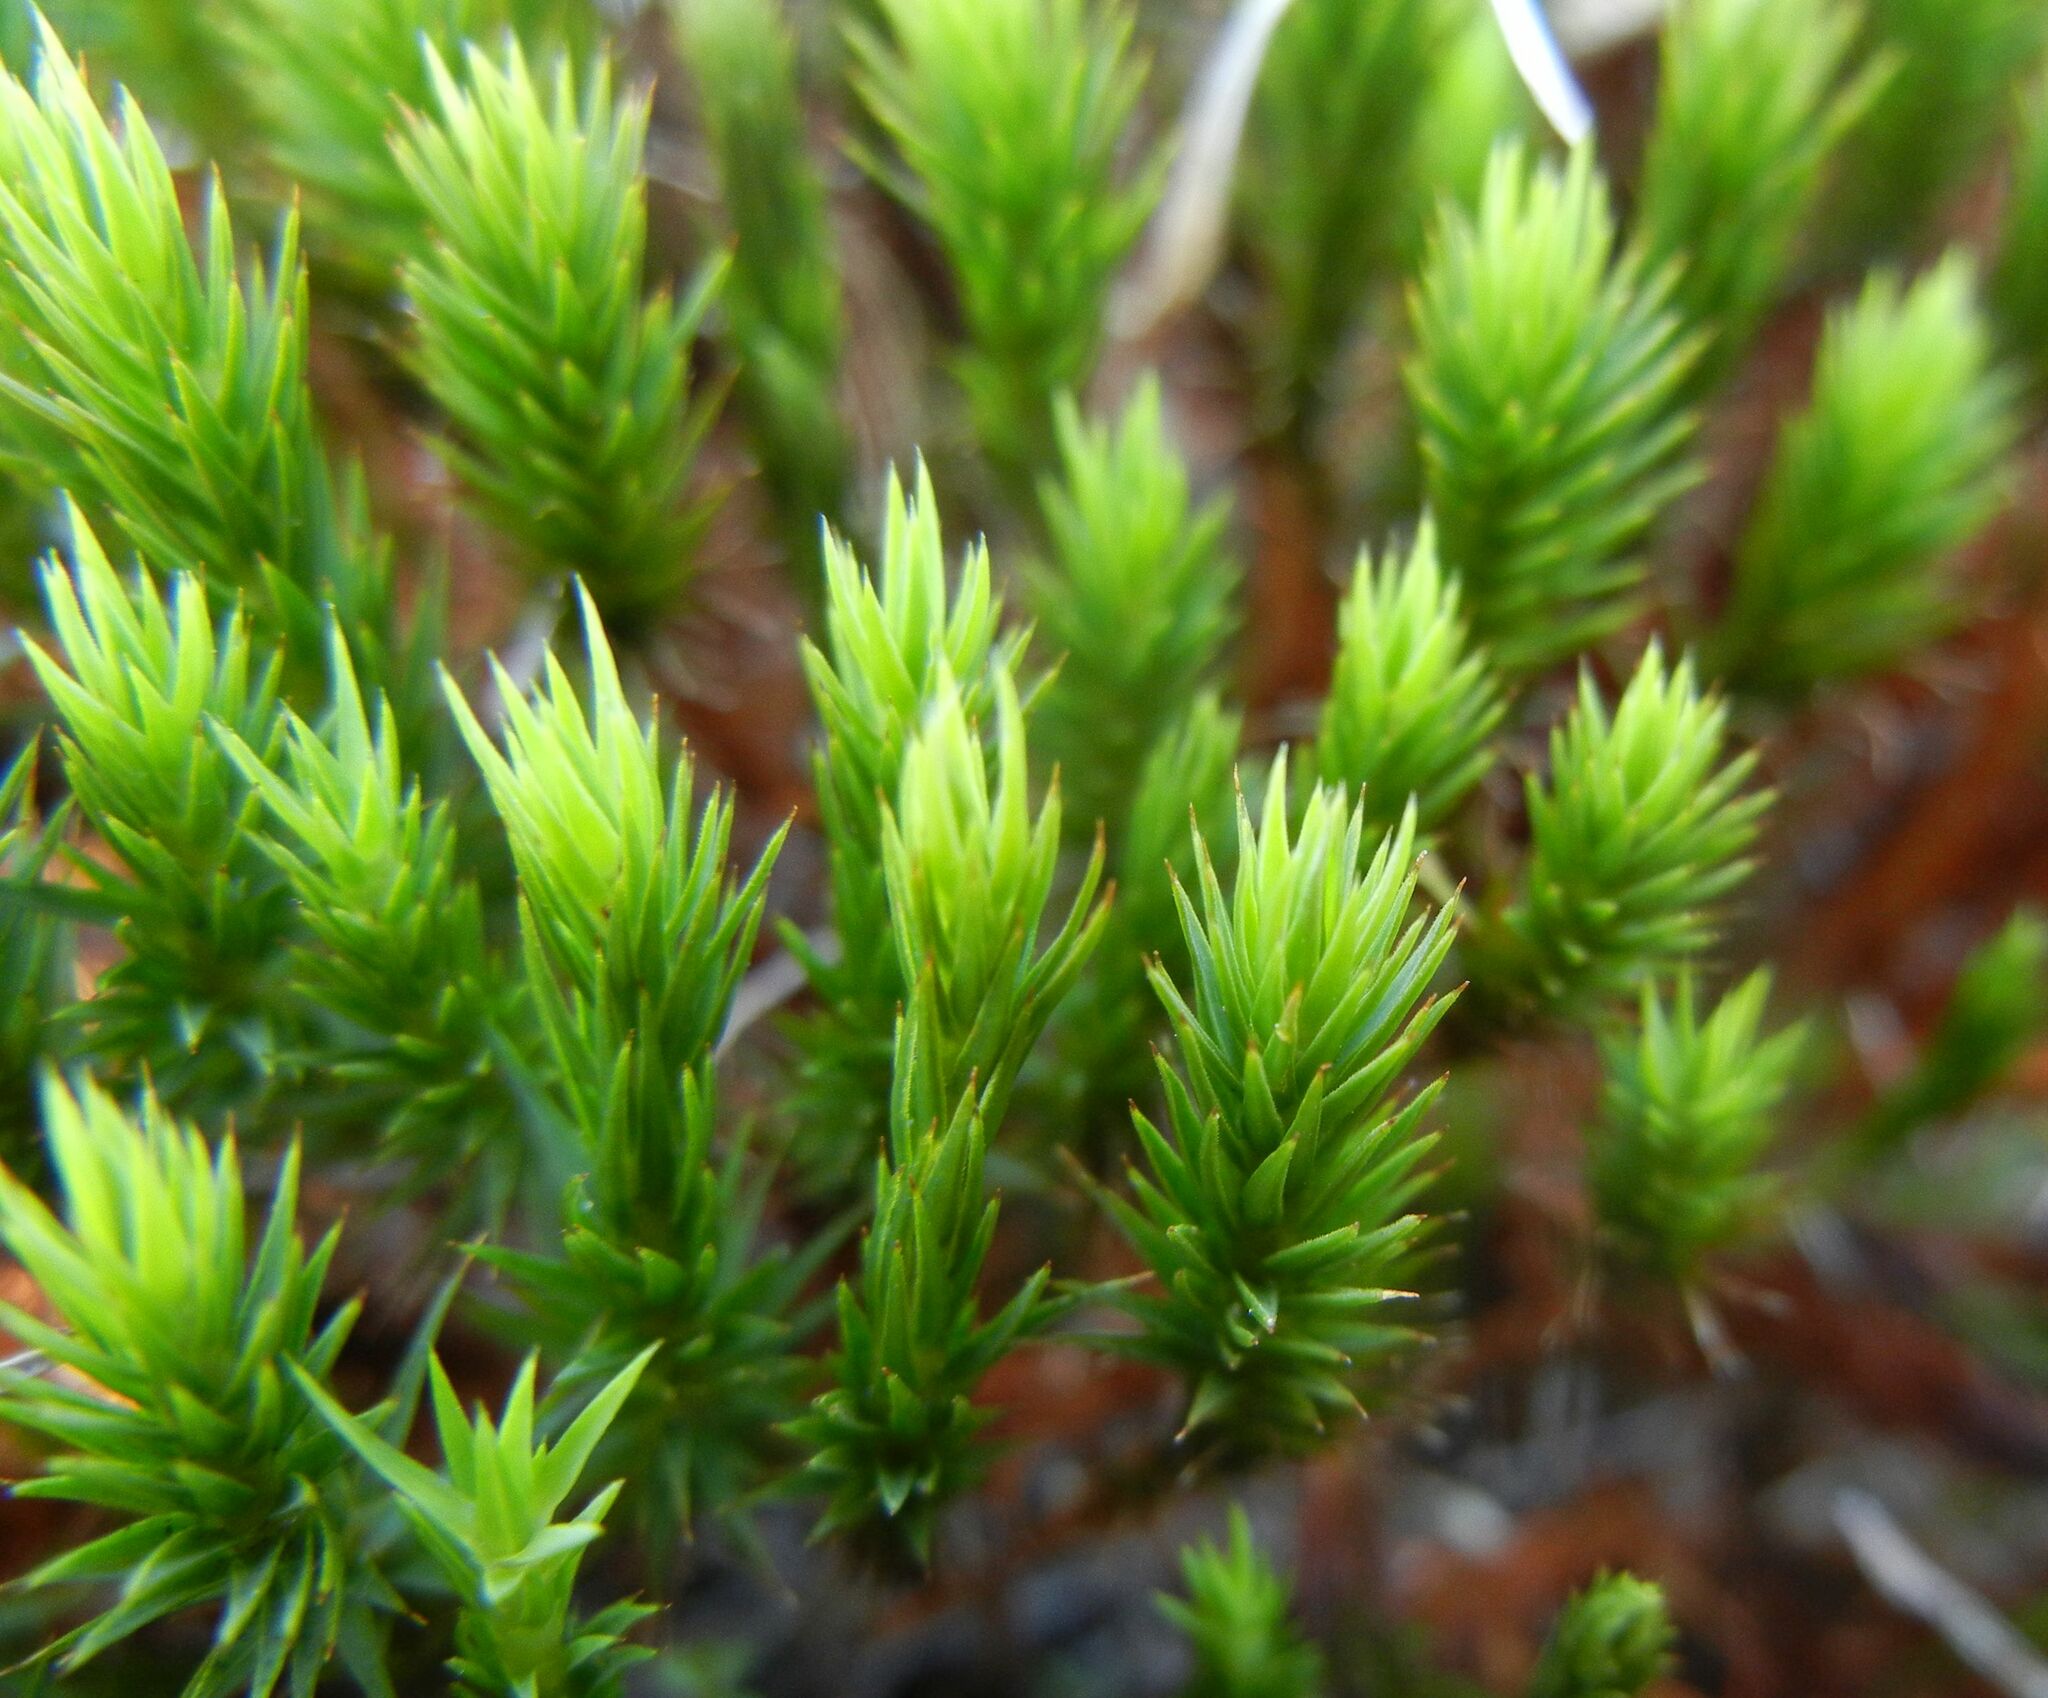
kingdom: Plantae
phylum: Bryophyta
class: Polytrichopsida
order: Polytrichales
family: Polytrichaceae
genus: Polytrichum
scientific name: Polytrichum strictum
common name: Bog haircap moss
